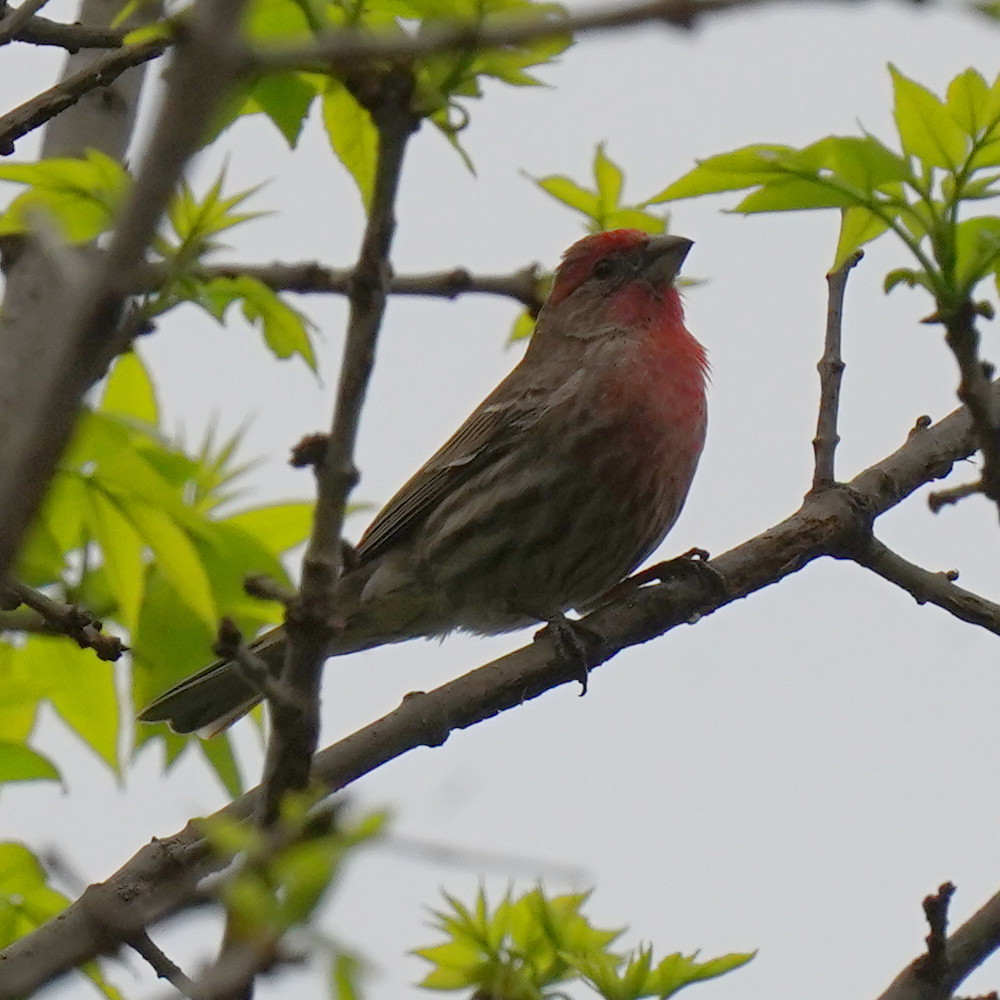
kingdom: Animalia
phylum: Chordata
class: Aves
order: Passeriformes
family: Fringillidae
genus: Haemorhous
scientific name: Haemorhous mexicanus
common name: House finch
